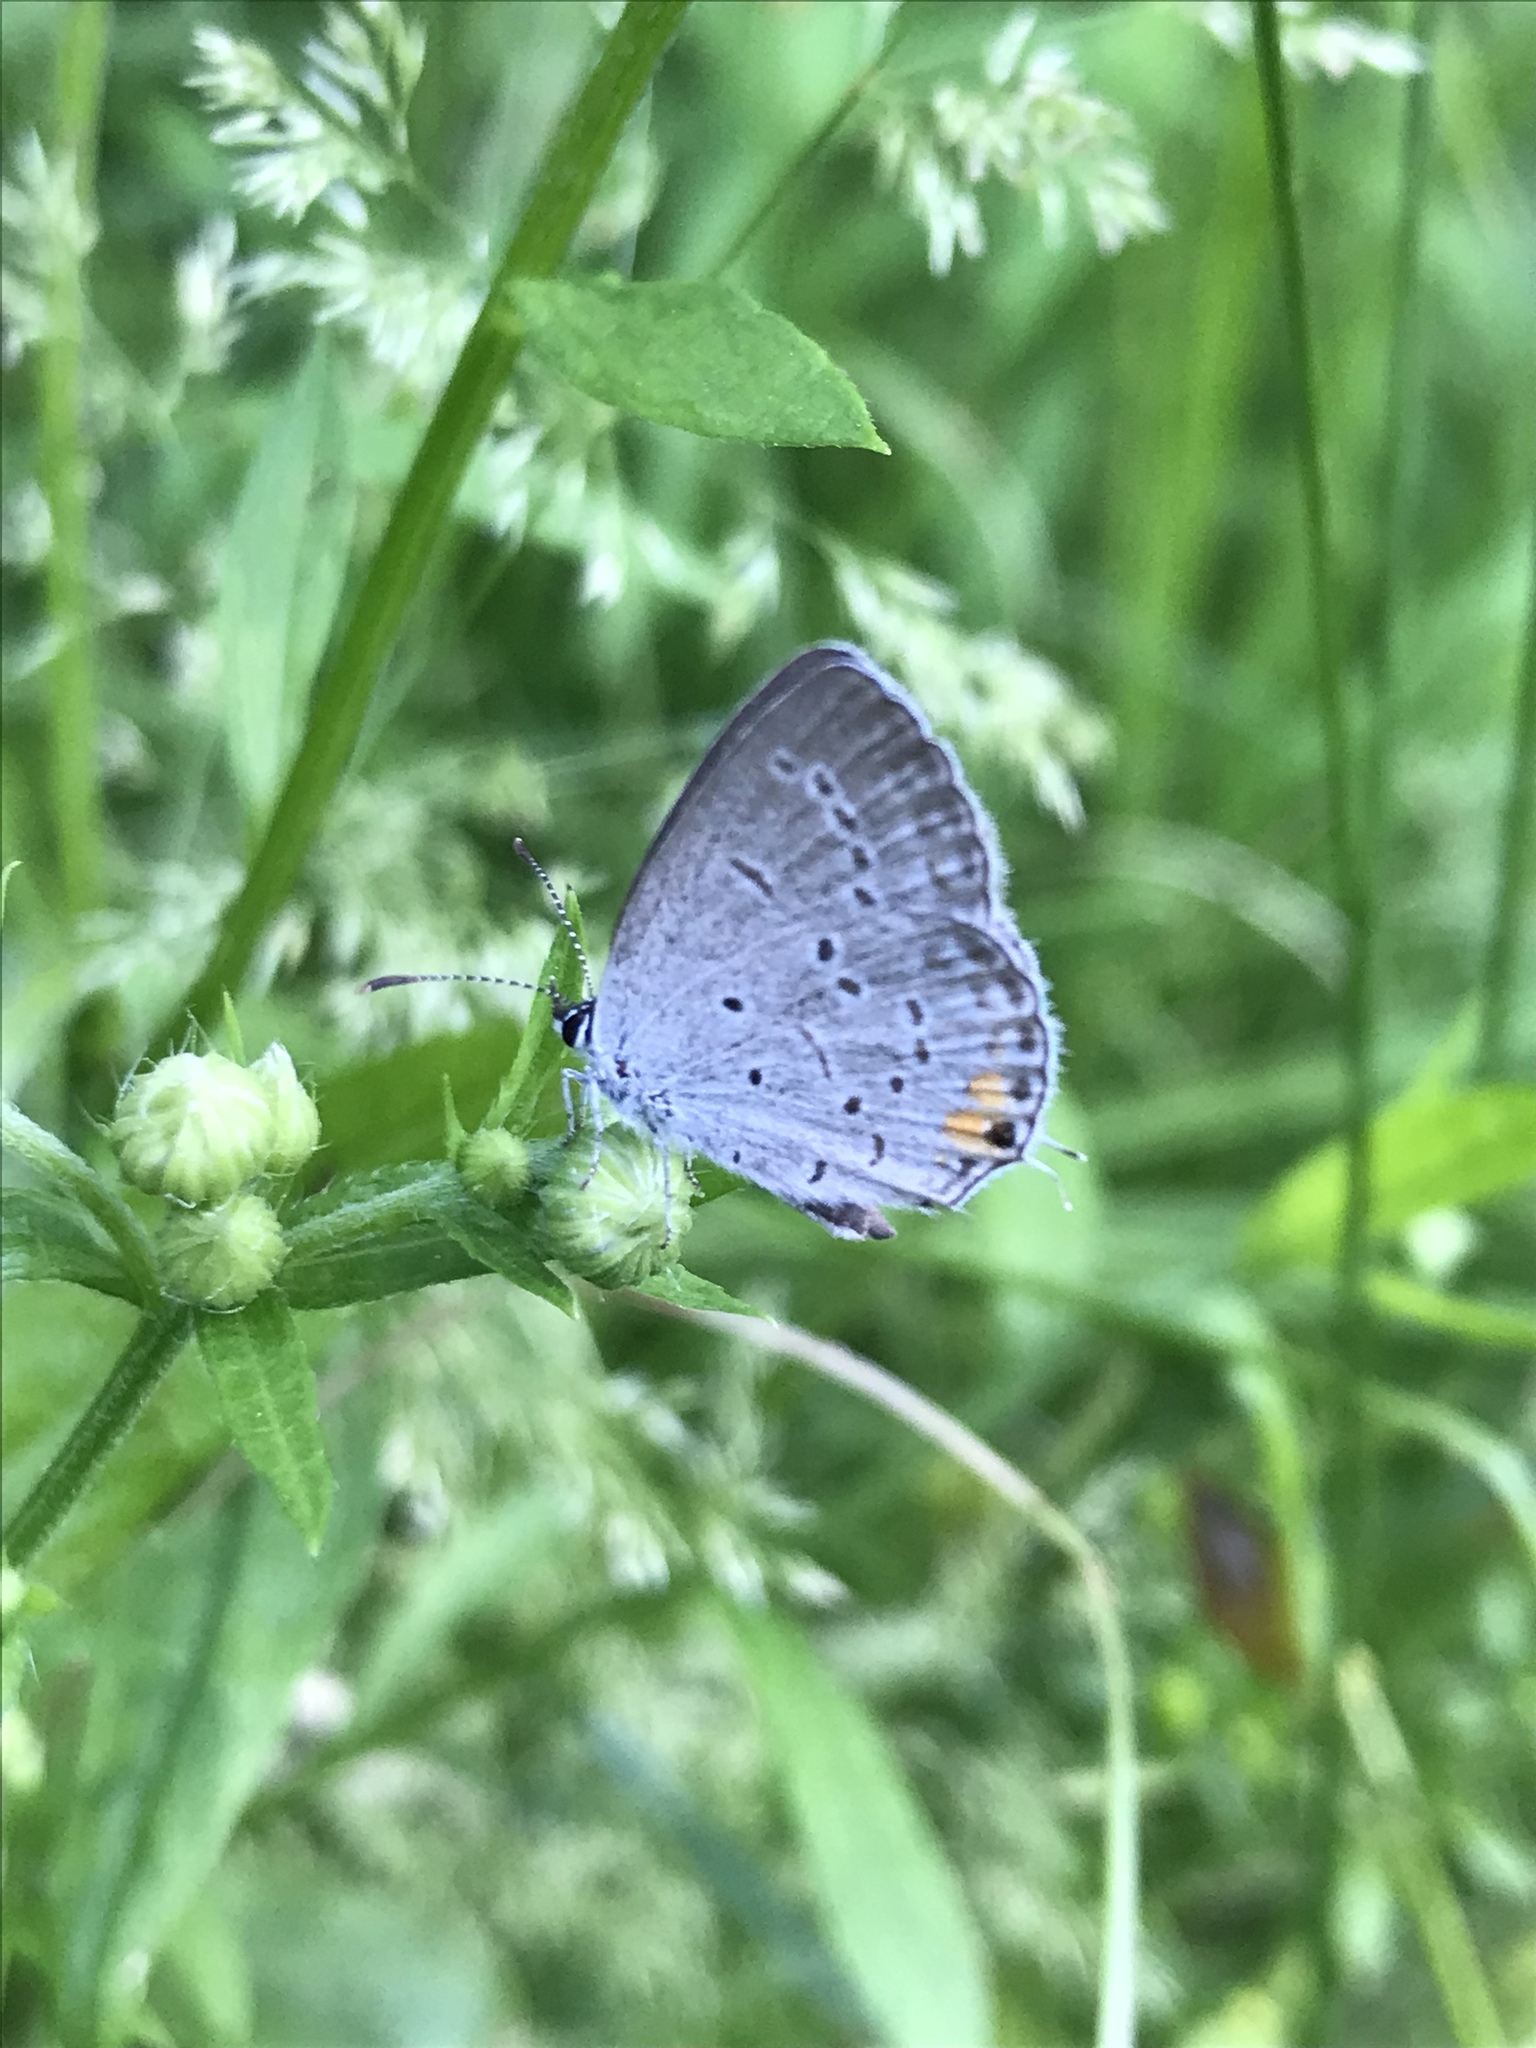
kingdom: Animalia
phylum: Arthropoda
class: Insecta
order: Lepidoptera
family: Lycaenidae
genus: Elkalyce
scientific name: Elkalyce comyntas
